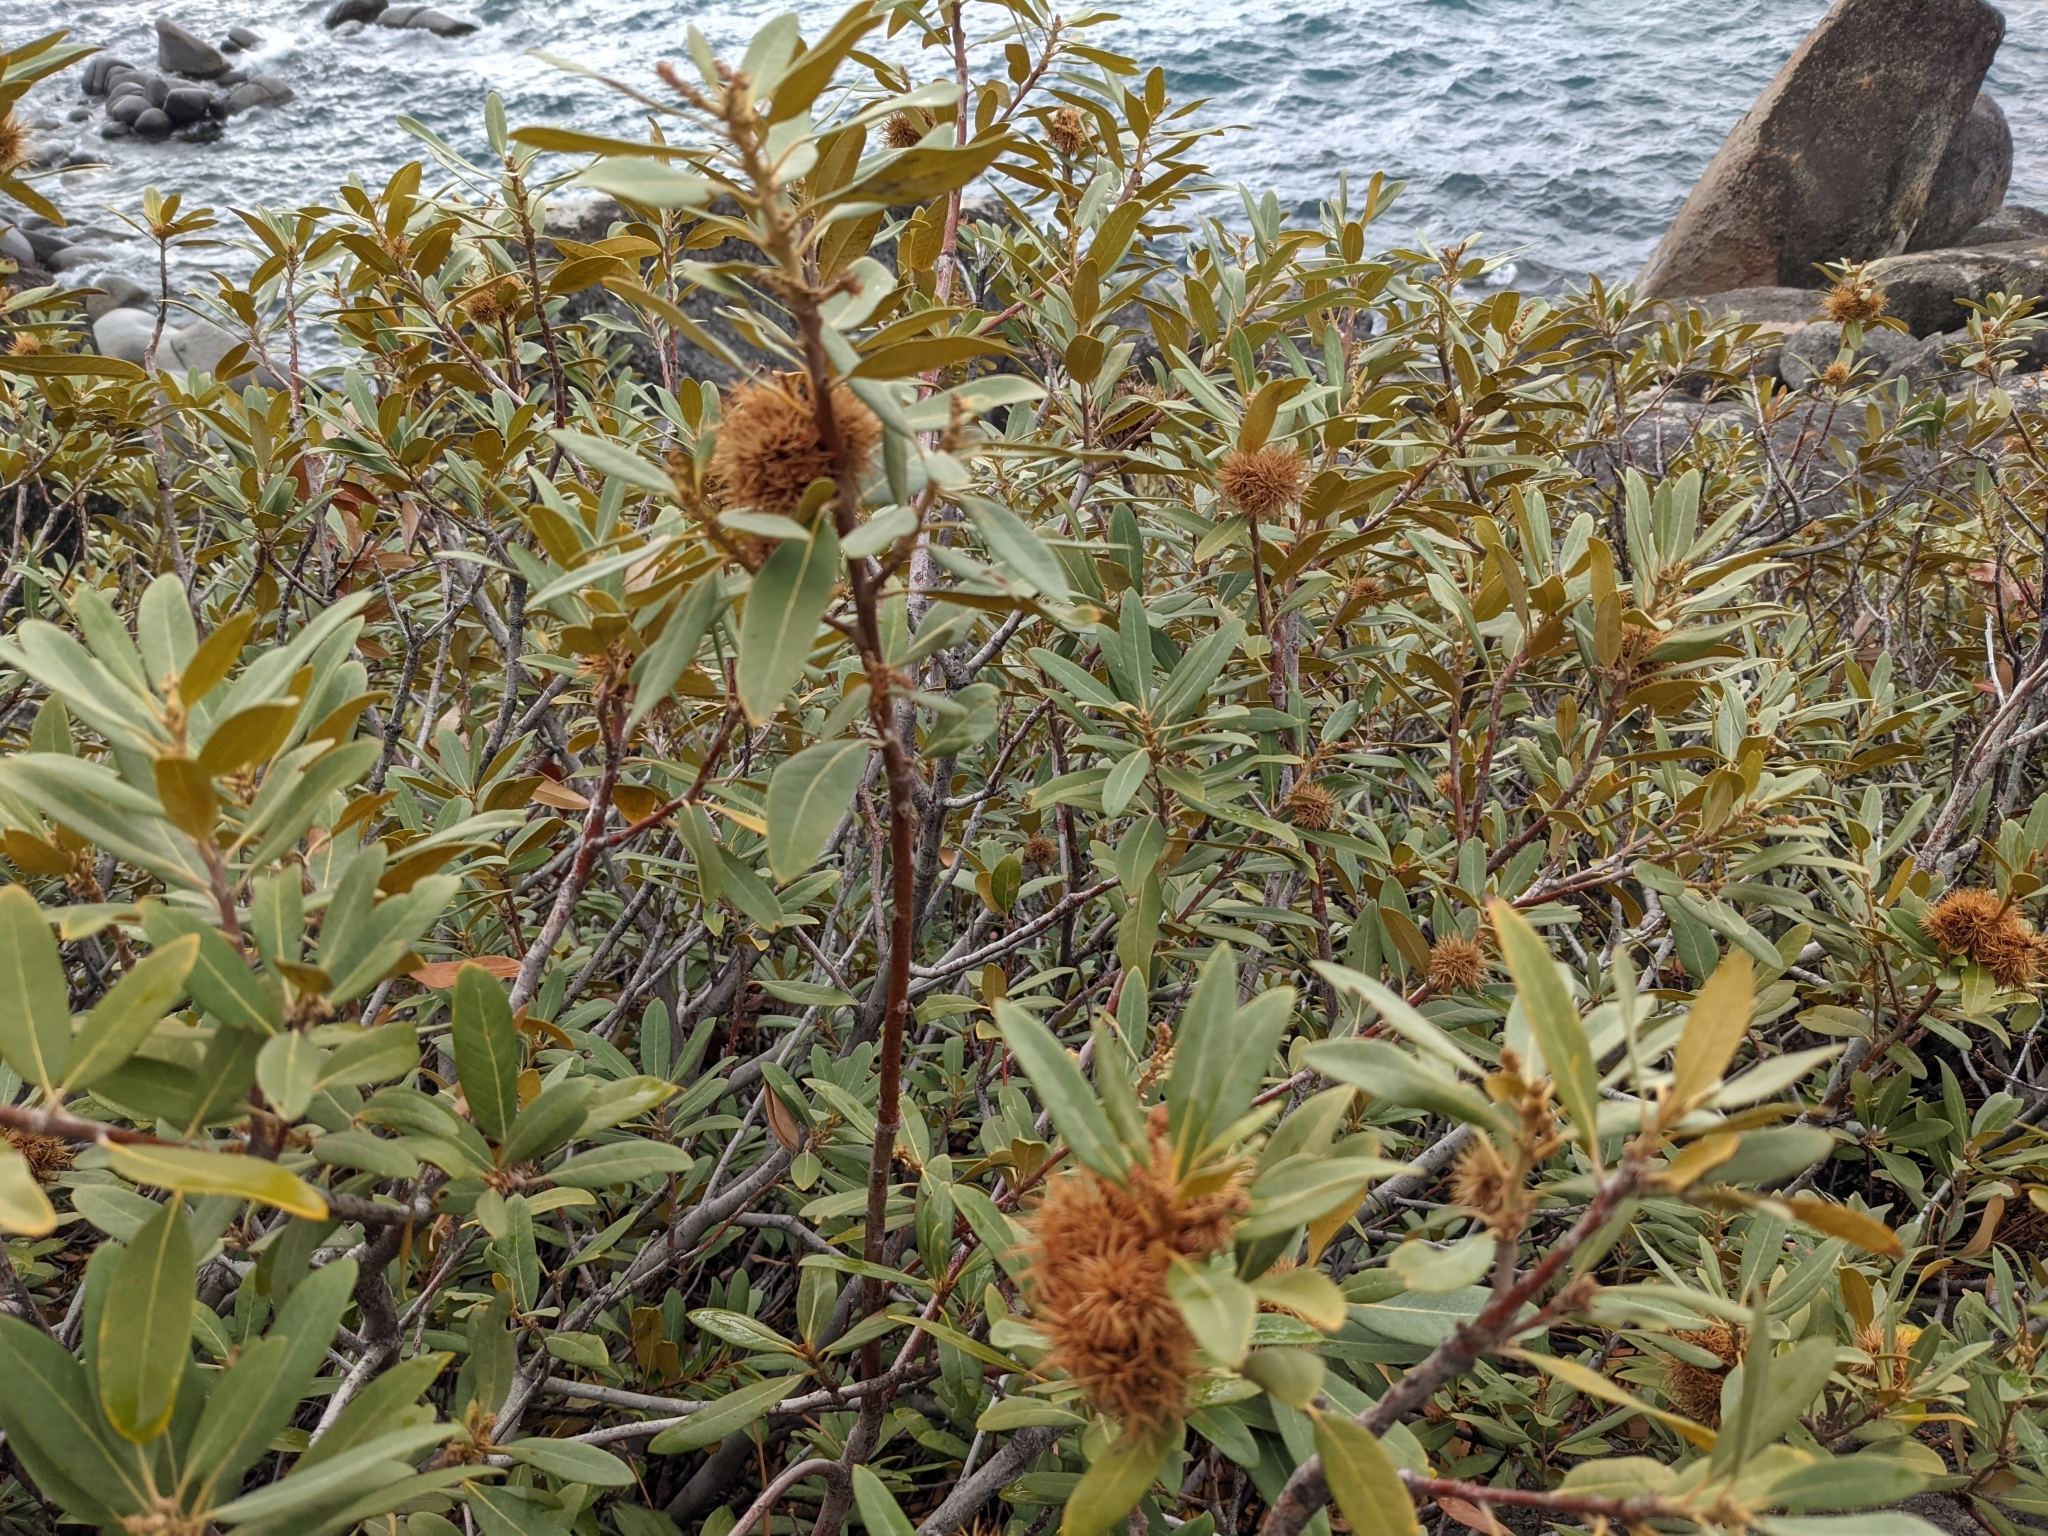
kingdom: Plantae
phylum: Tracheophyta
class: Magnoliopsida
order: Fagales
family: Fagaceae
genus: Chrysolepis
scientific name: Chrysolepis sempervirens
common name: Bush chinquapin
